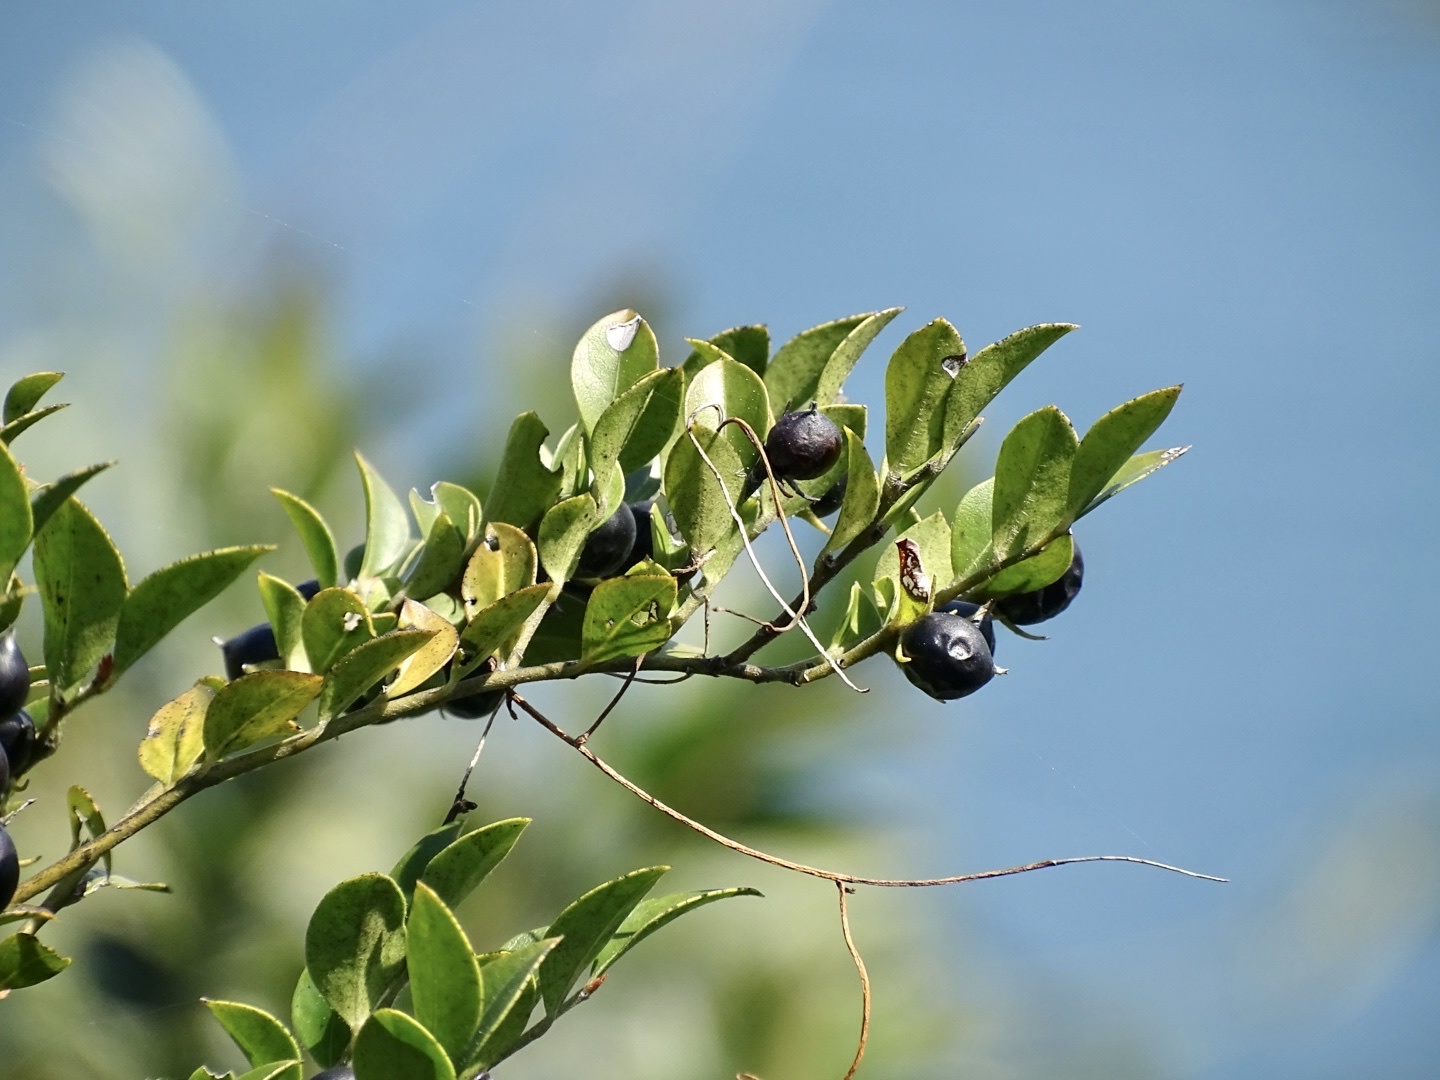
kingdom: Plantae
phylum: Tracheophyta
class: Magnoliopsida
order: Ericales
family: Ebenaceae
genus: Diospyros
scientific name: Diospyros vaccinioides
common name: Small persimmon
